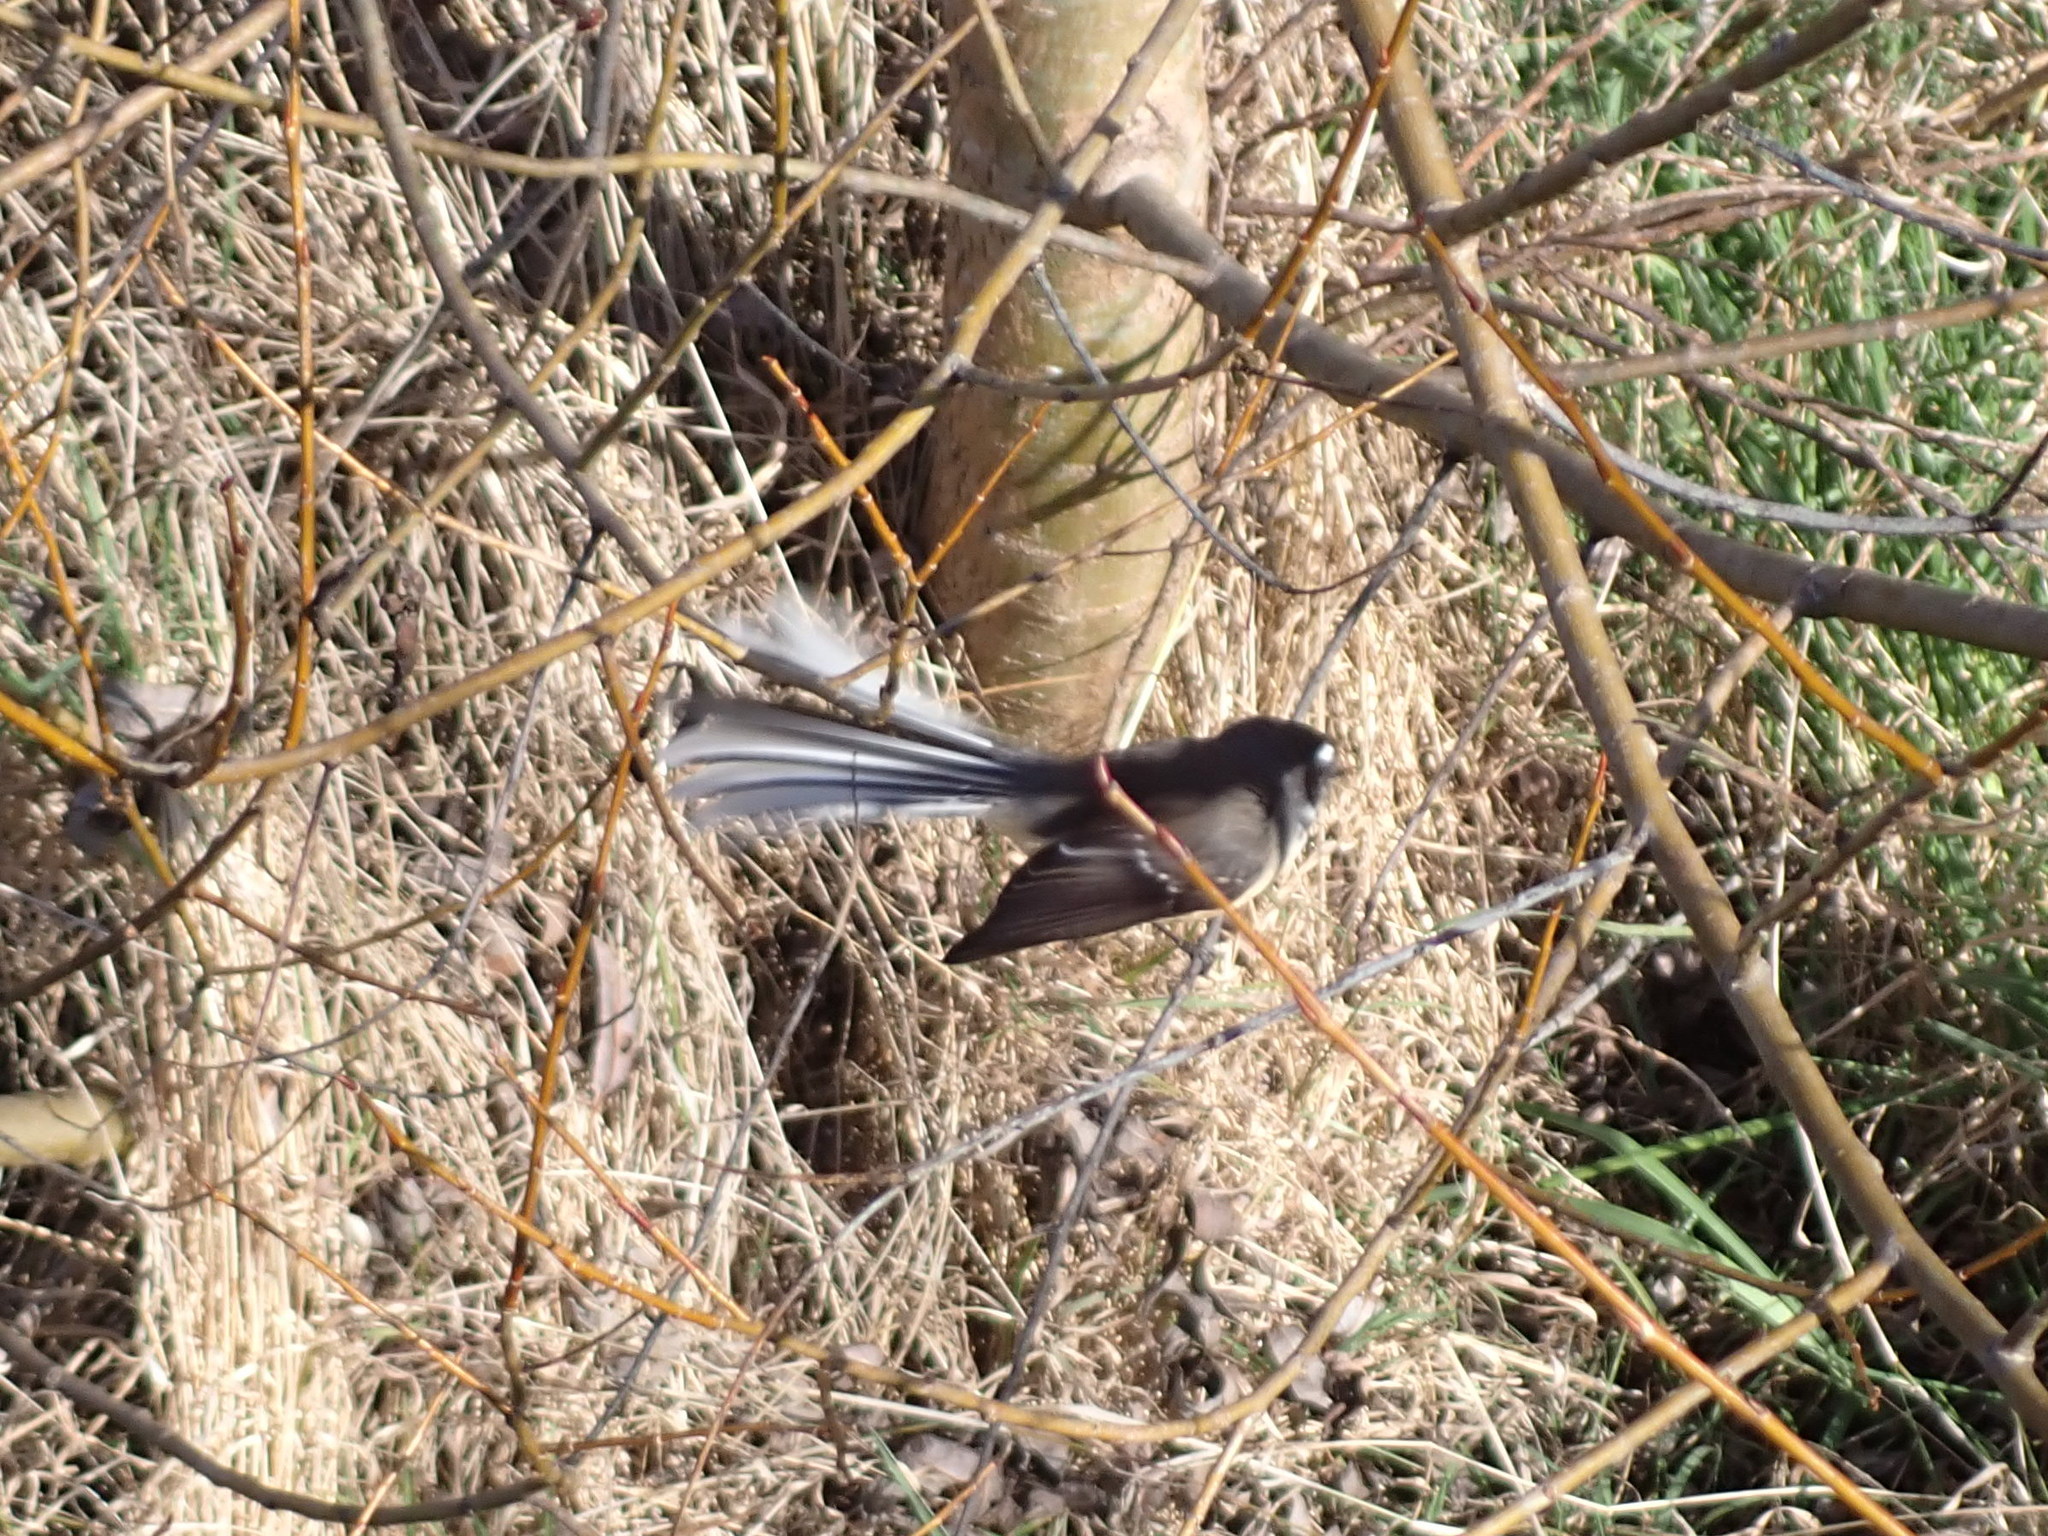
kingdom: Animalia
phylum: Chordata
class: Aves
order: Passeriformes
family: Rhipiduridae
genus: Rhipidura
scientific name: Rhipidura fuliginosa
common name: New zealand fantail
